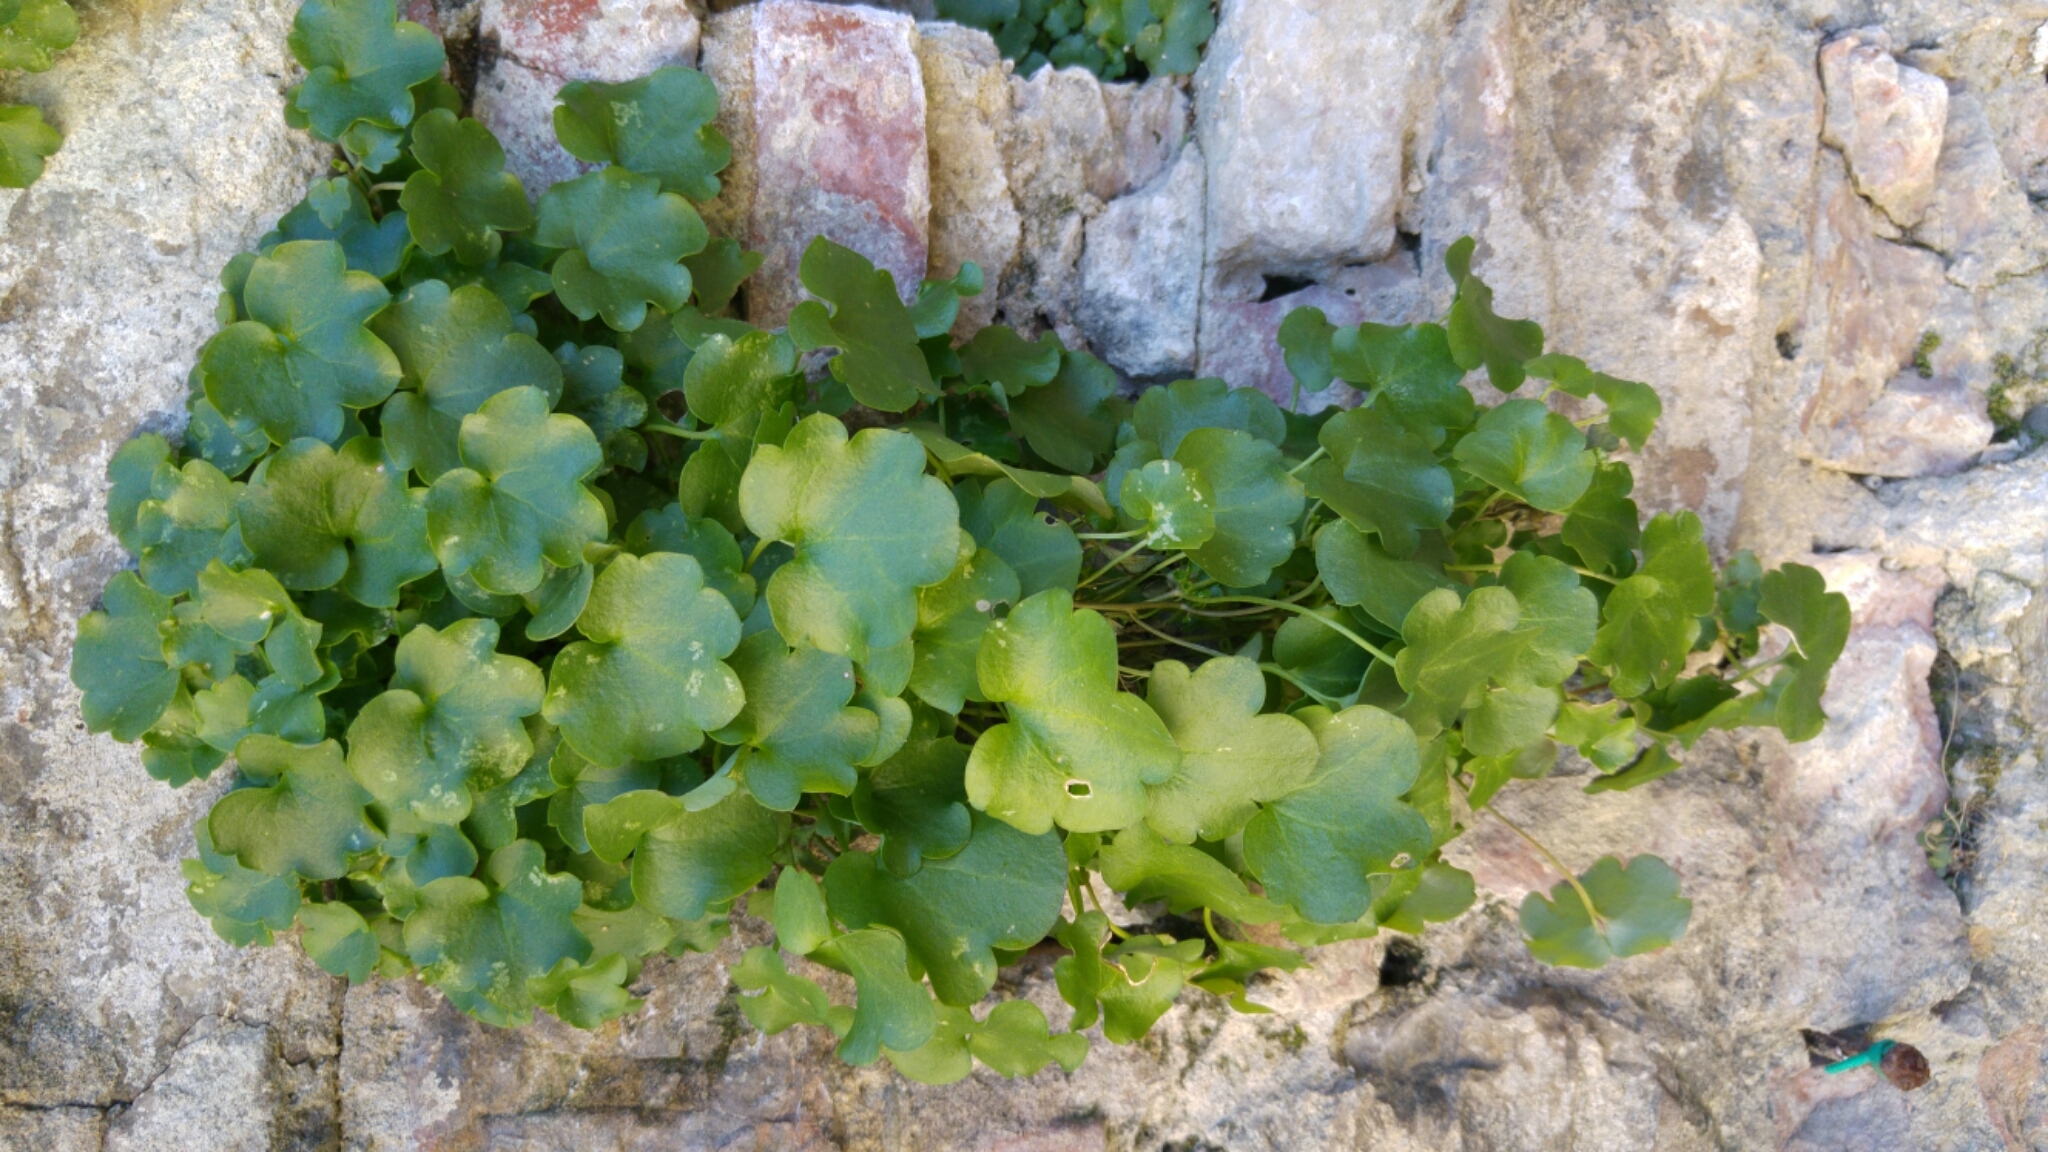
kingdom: Plantae
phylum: Tracheophyta
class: Magnoliopsida
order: Lamiales
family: Plantaginaceae
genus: Cymbalaria
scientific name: Cymbalaria muralis
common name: Ivy-leaved toadflax
